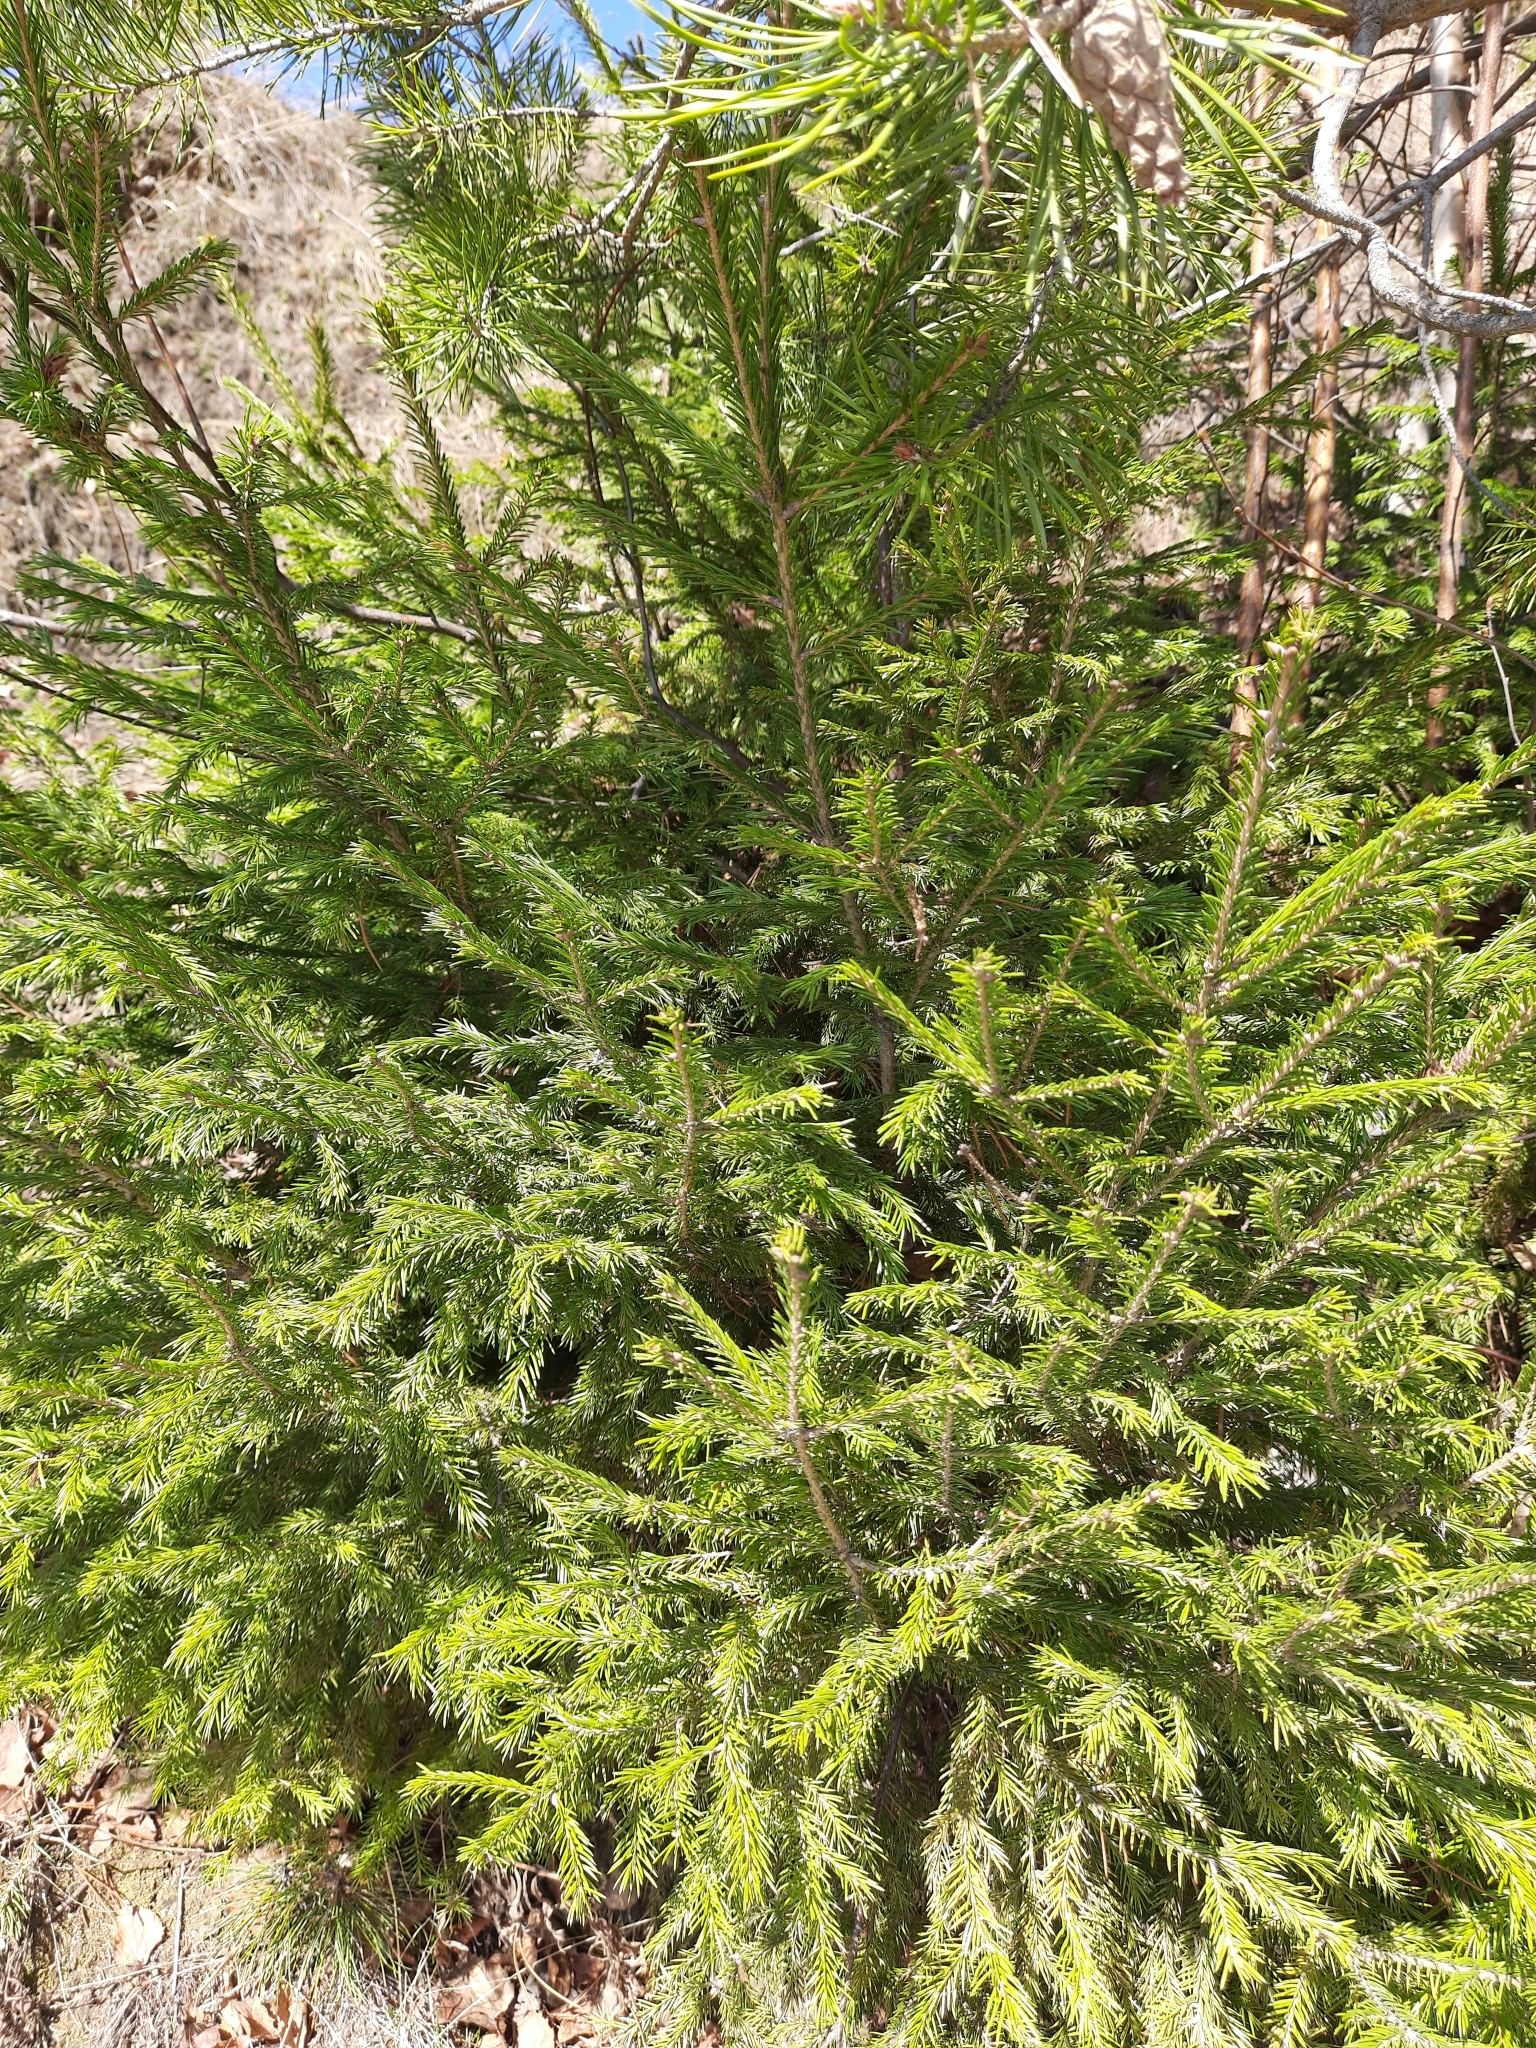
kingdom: Plantae
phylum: Tracheophyta
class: Pinopsida
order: Pinales
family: Pinaceae
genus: Picea
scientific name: Picea obovata
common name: Siberian spruce
